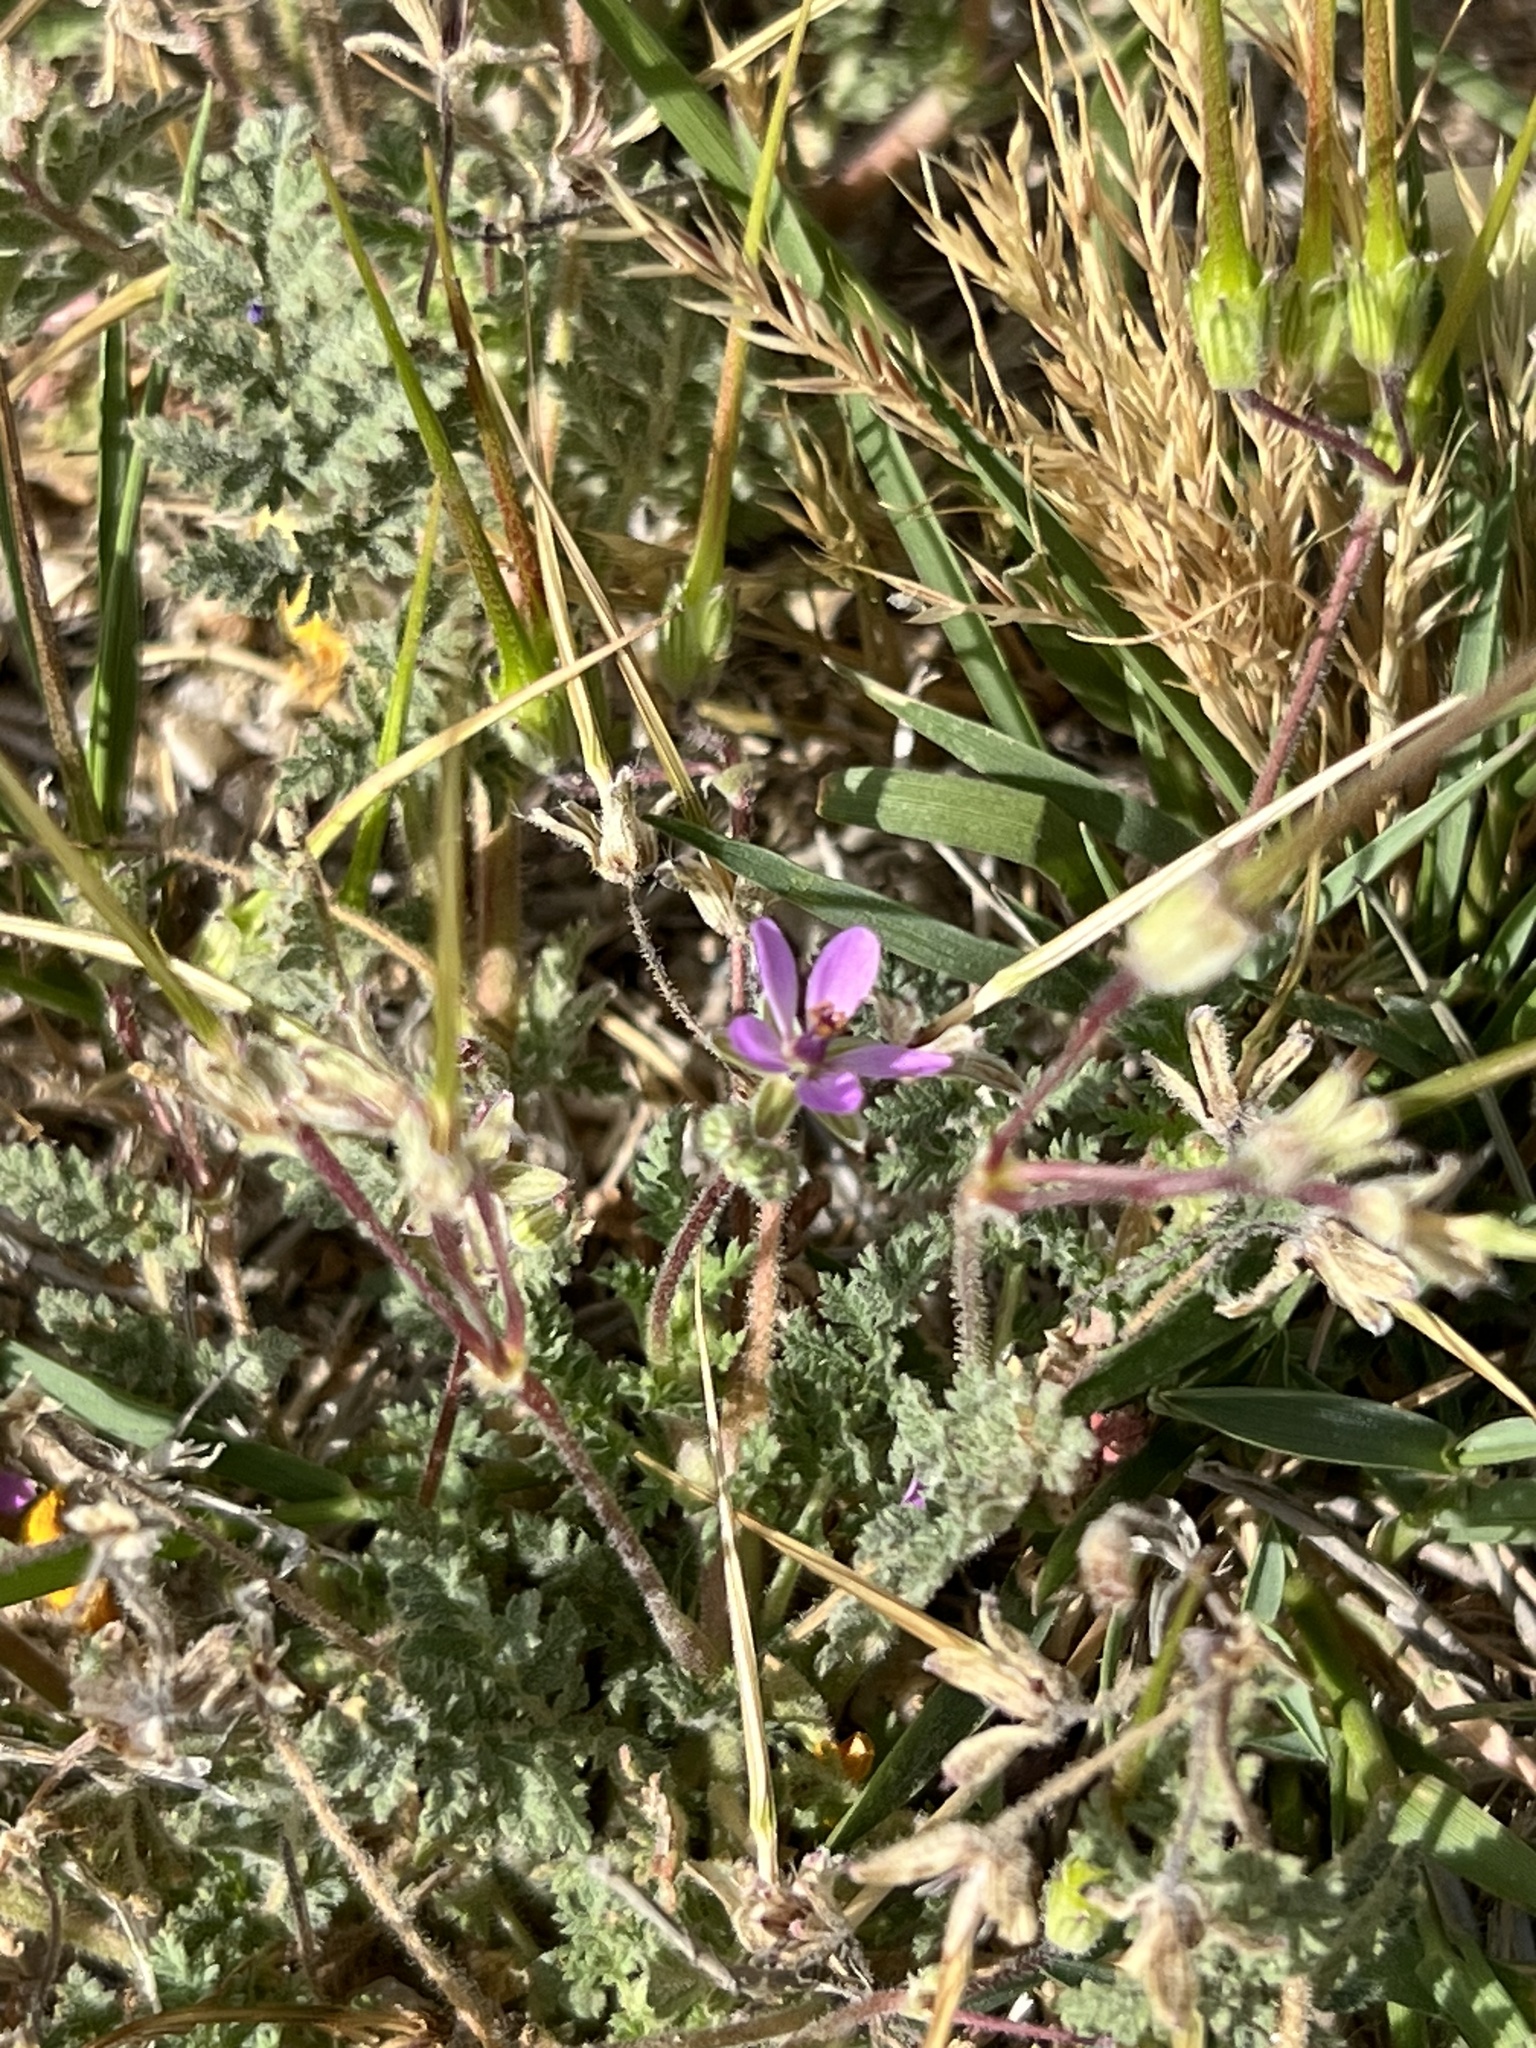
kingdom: Plantae
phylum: Tracheophyta
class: Magnoliopsida
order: Geraniales
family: Geraniaceae
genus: Erodium
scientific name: Erodium cicutarium
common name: Common stork's-bill
